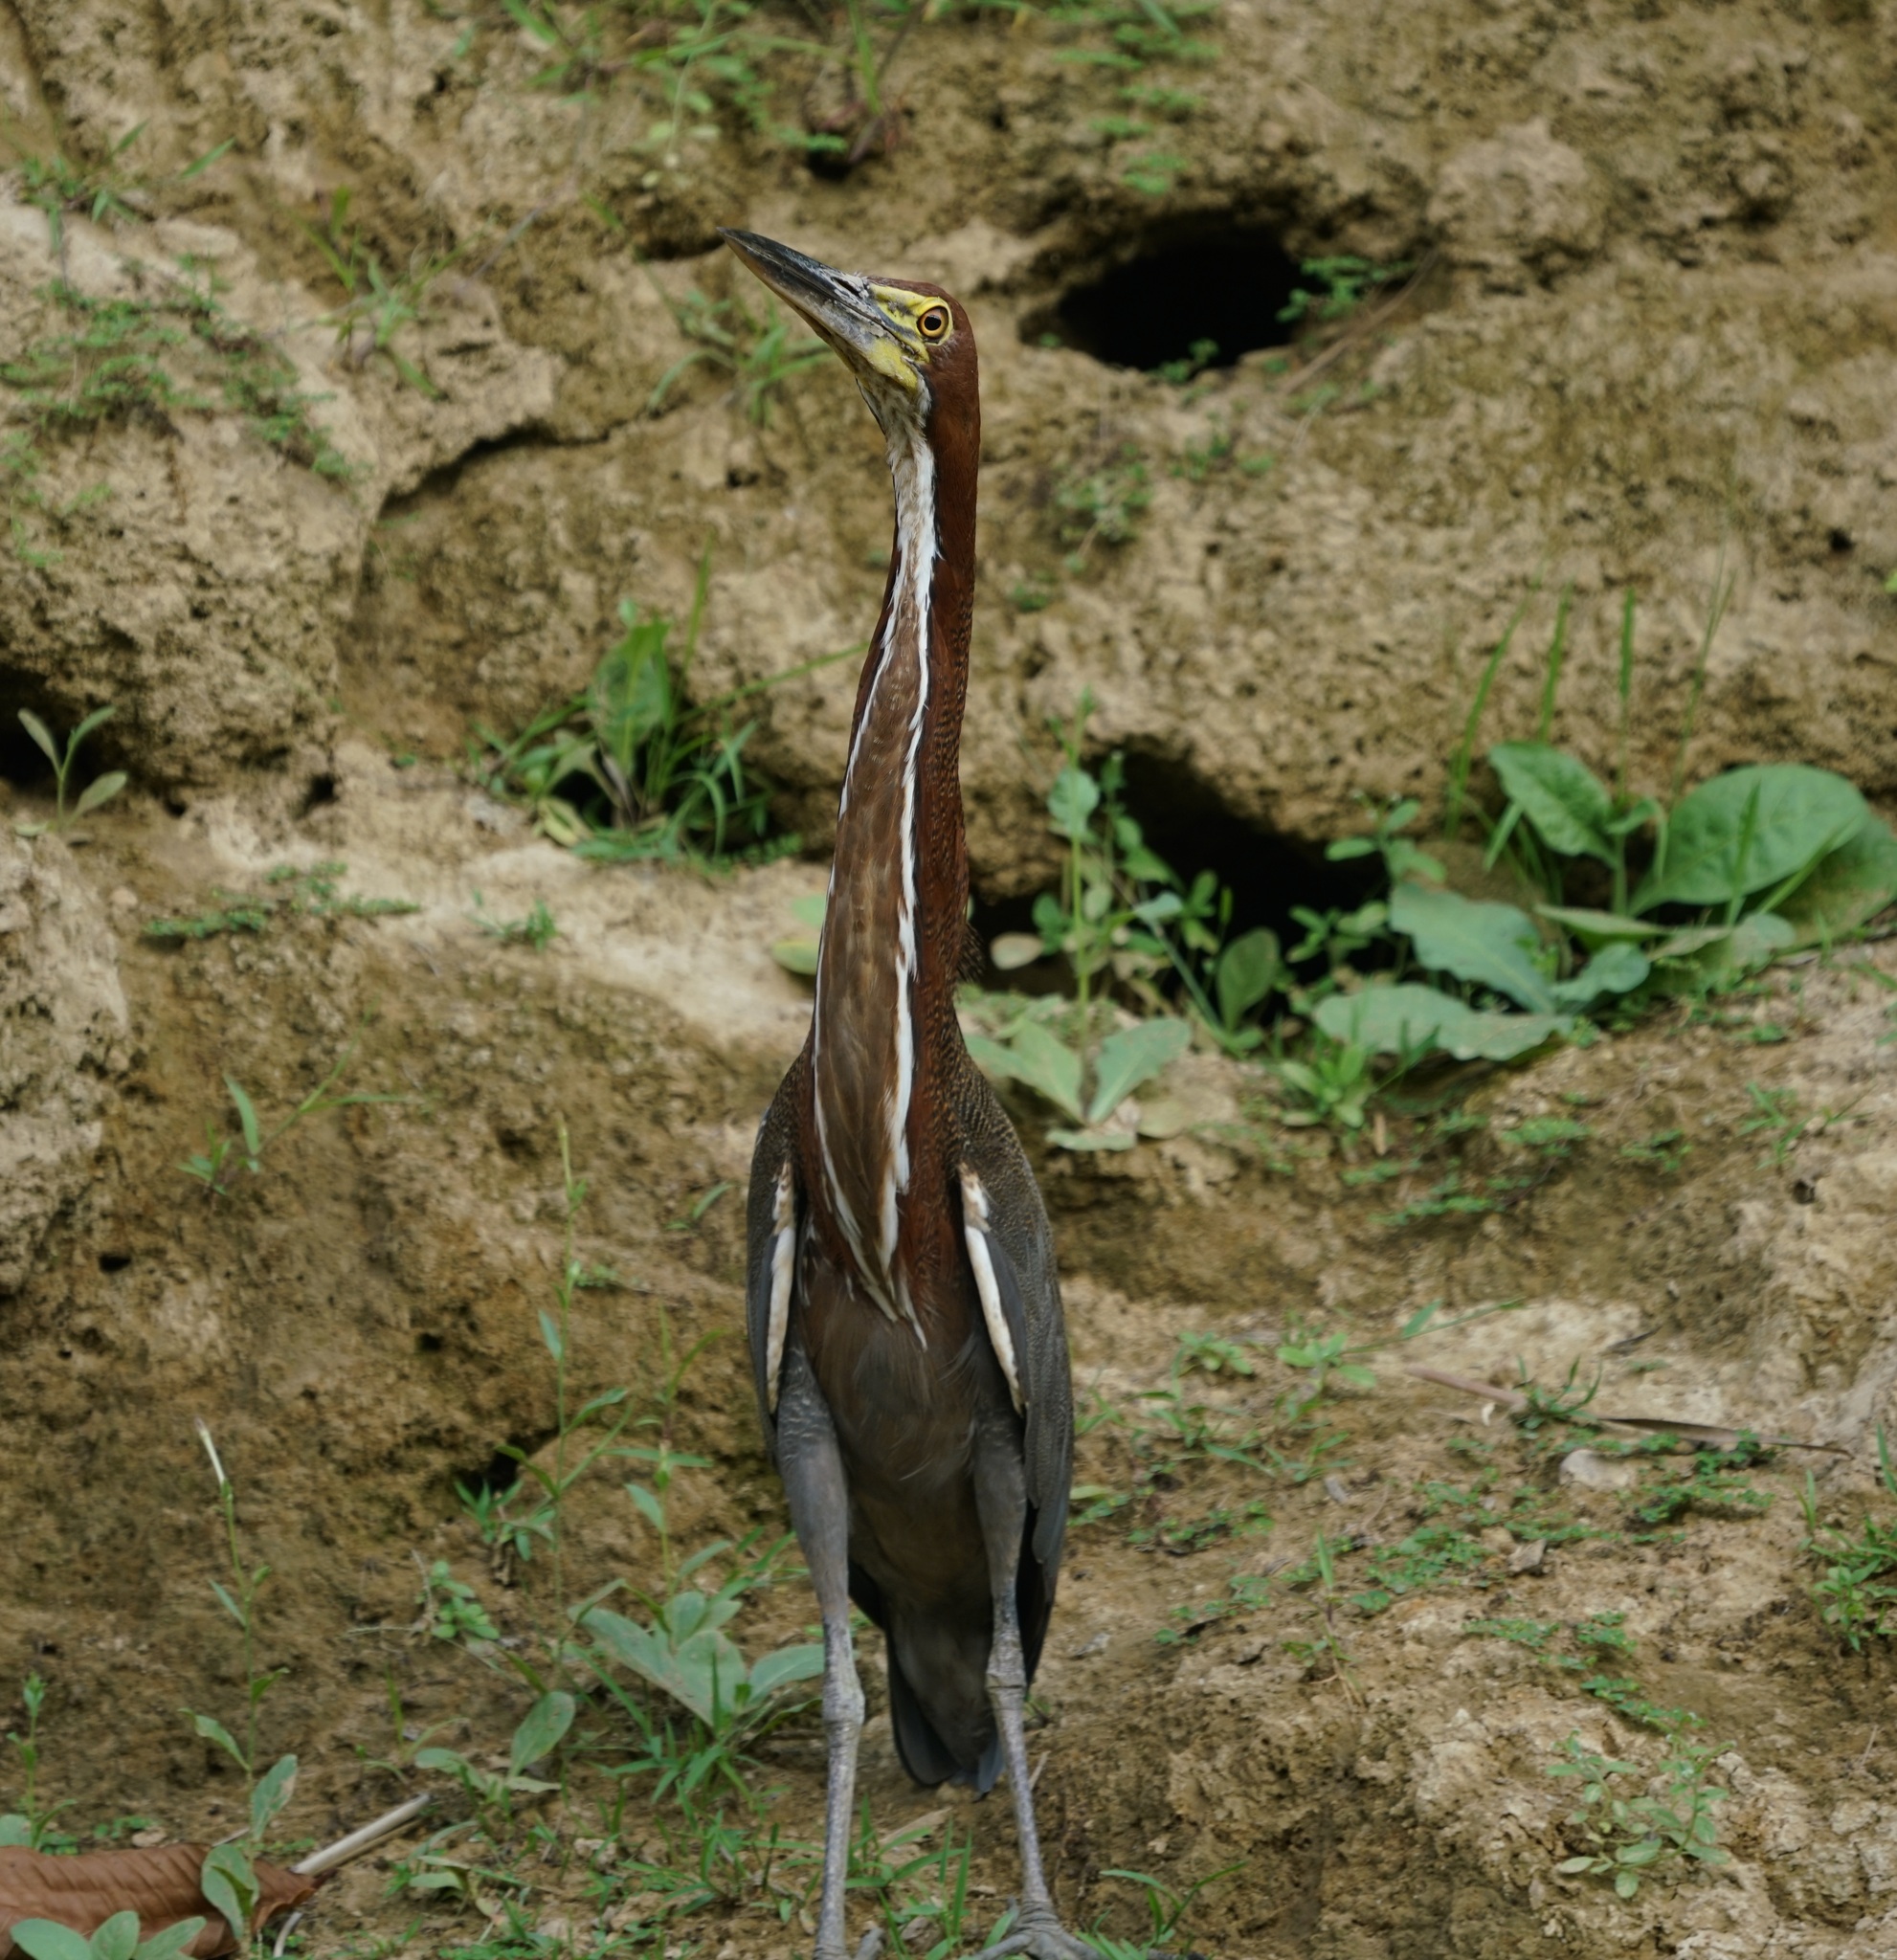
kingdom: Animalia
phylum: Chordata
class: Aves
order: Pelecaniformes
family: Ardeidae
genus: Tigrisoma
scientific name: Tigrisoma lineatum
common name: Rufescent tiger-heron
